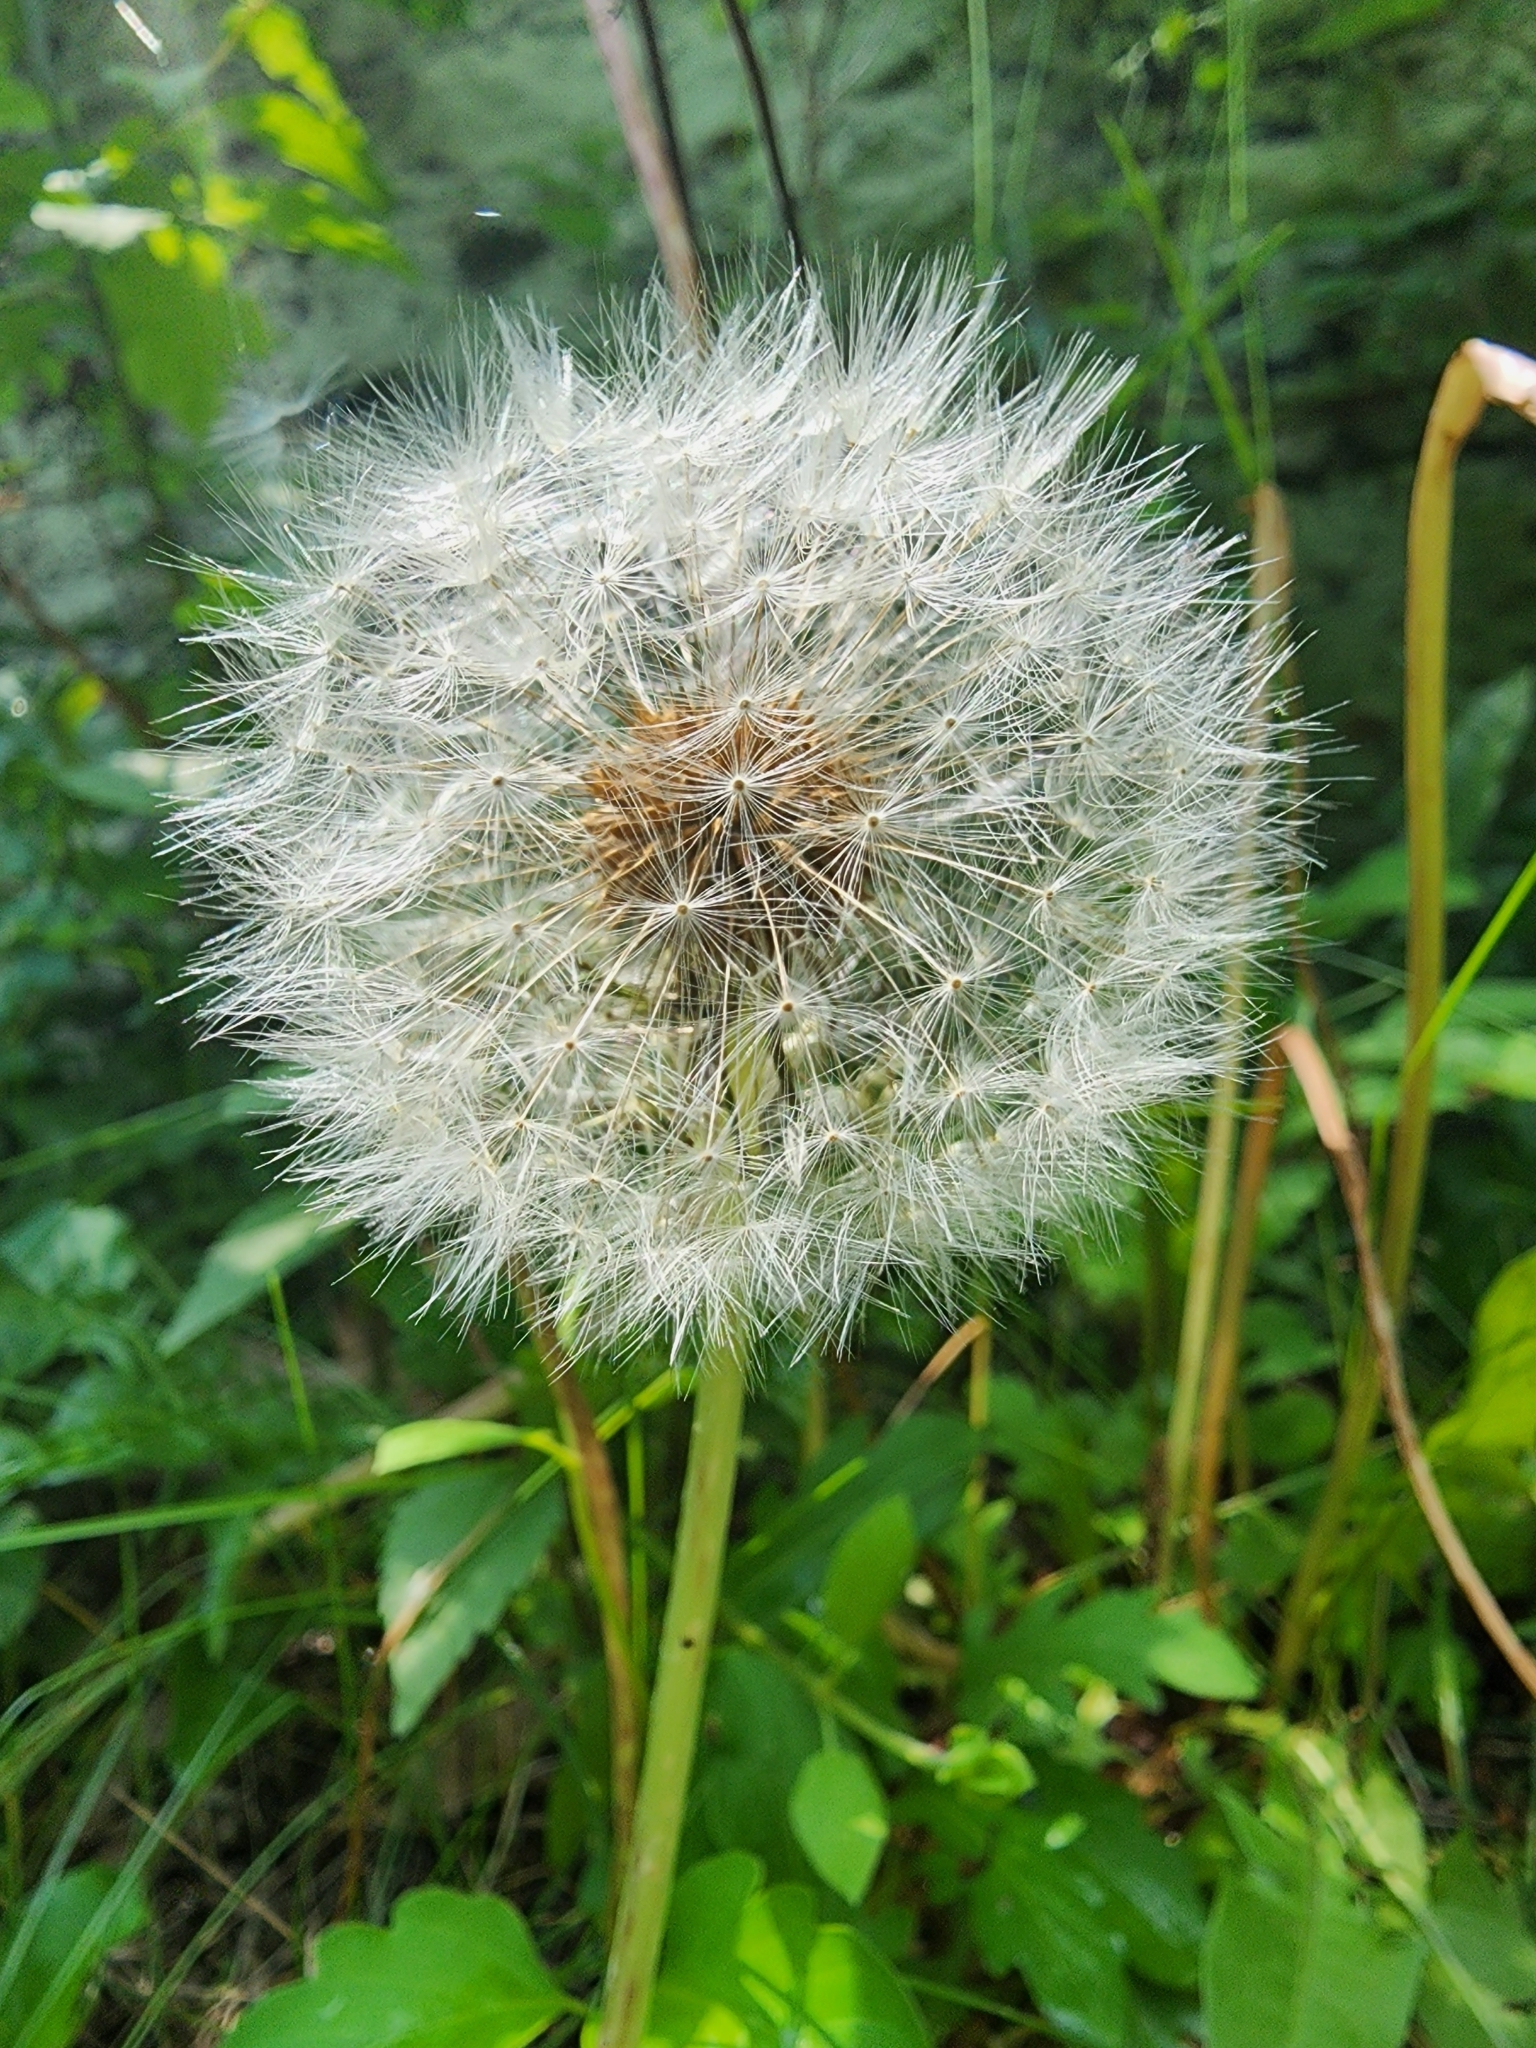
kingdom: Plantae
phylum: Tracheophyta
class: Magnoliopsida
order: Asterales
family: Asteraceae
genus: Taraxacum
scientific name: Taraxacum officinale
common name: Common dandelion
